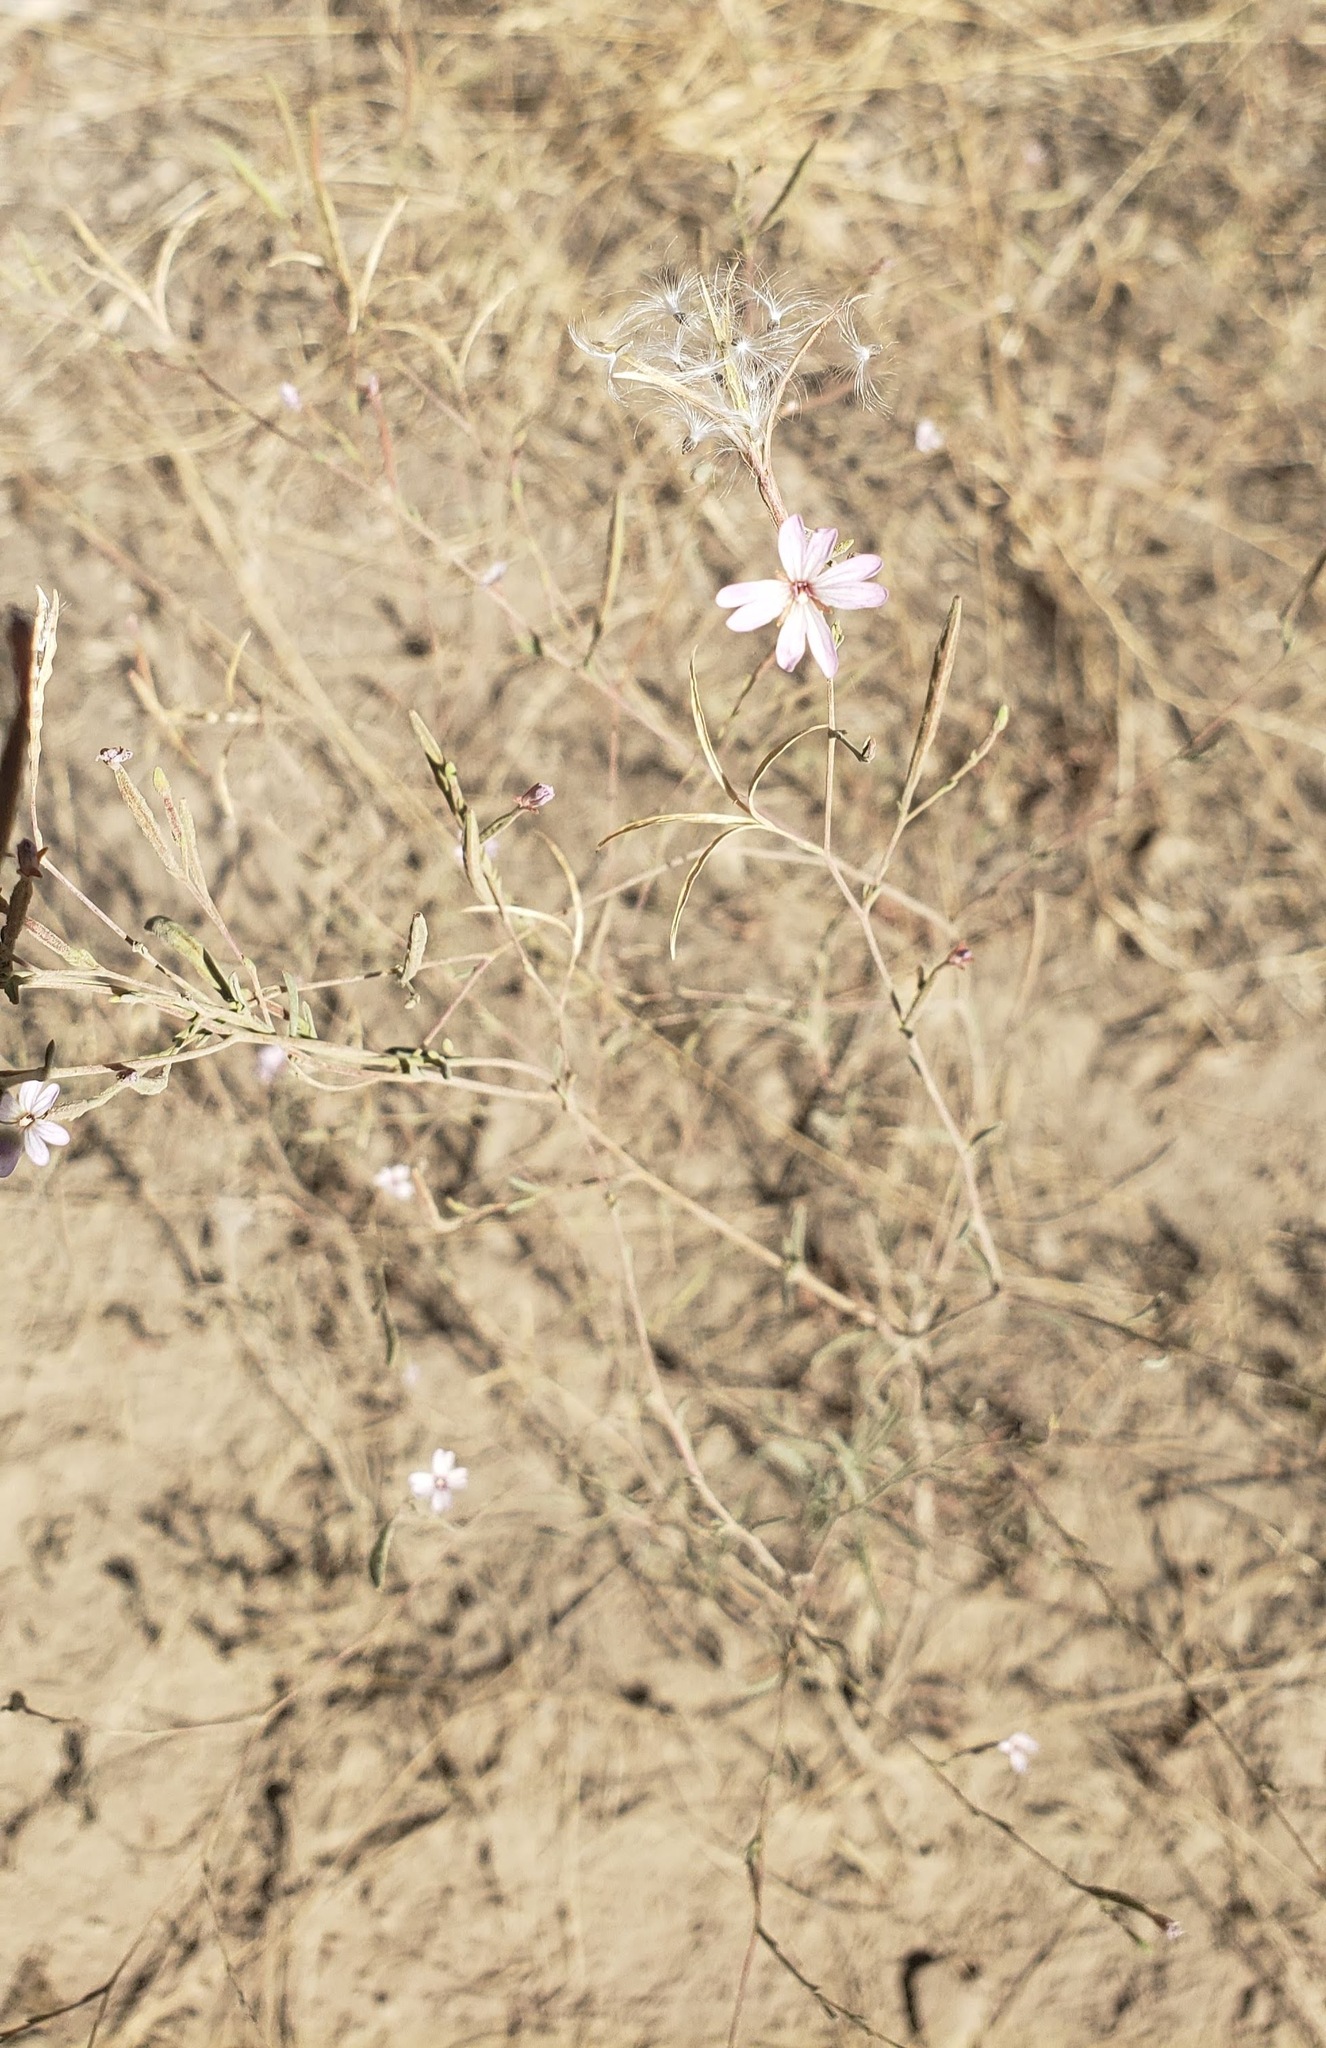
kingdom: Plantae
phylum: Tracheophyta
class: Magnoliopsida
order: Myrtales
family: Onagraceae
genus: Epilobium
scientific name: Epilobium brachycarpum
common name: Annual willowherb
